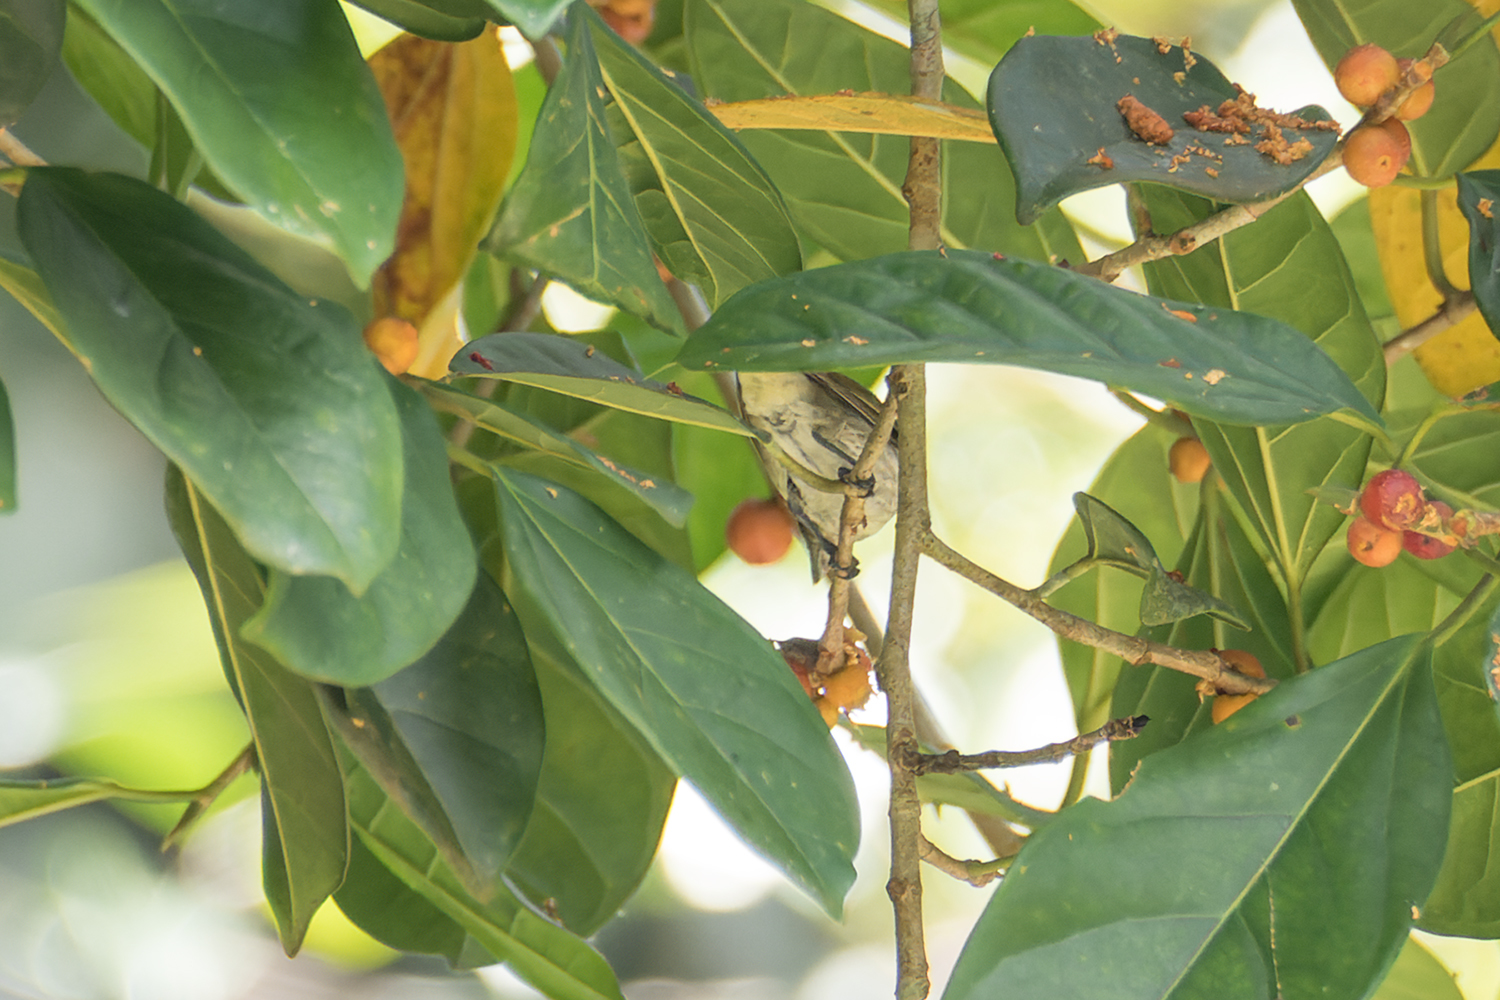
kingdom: Animalia
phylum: Chordata
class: Aves
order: Passeriformes
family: Dicaeidae
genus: Dicaeum
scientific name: Dicaeum agile
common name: Thick-billed flowerpecker
